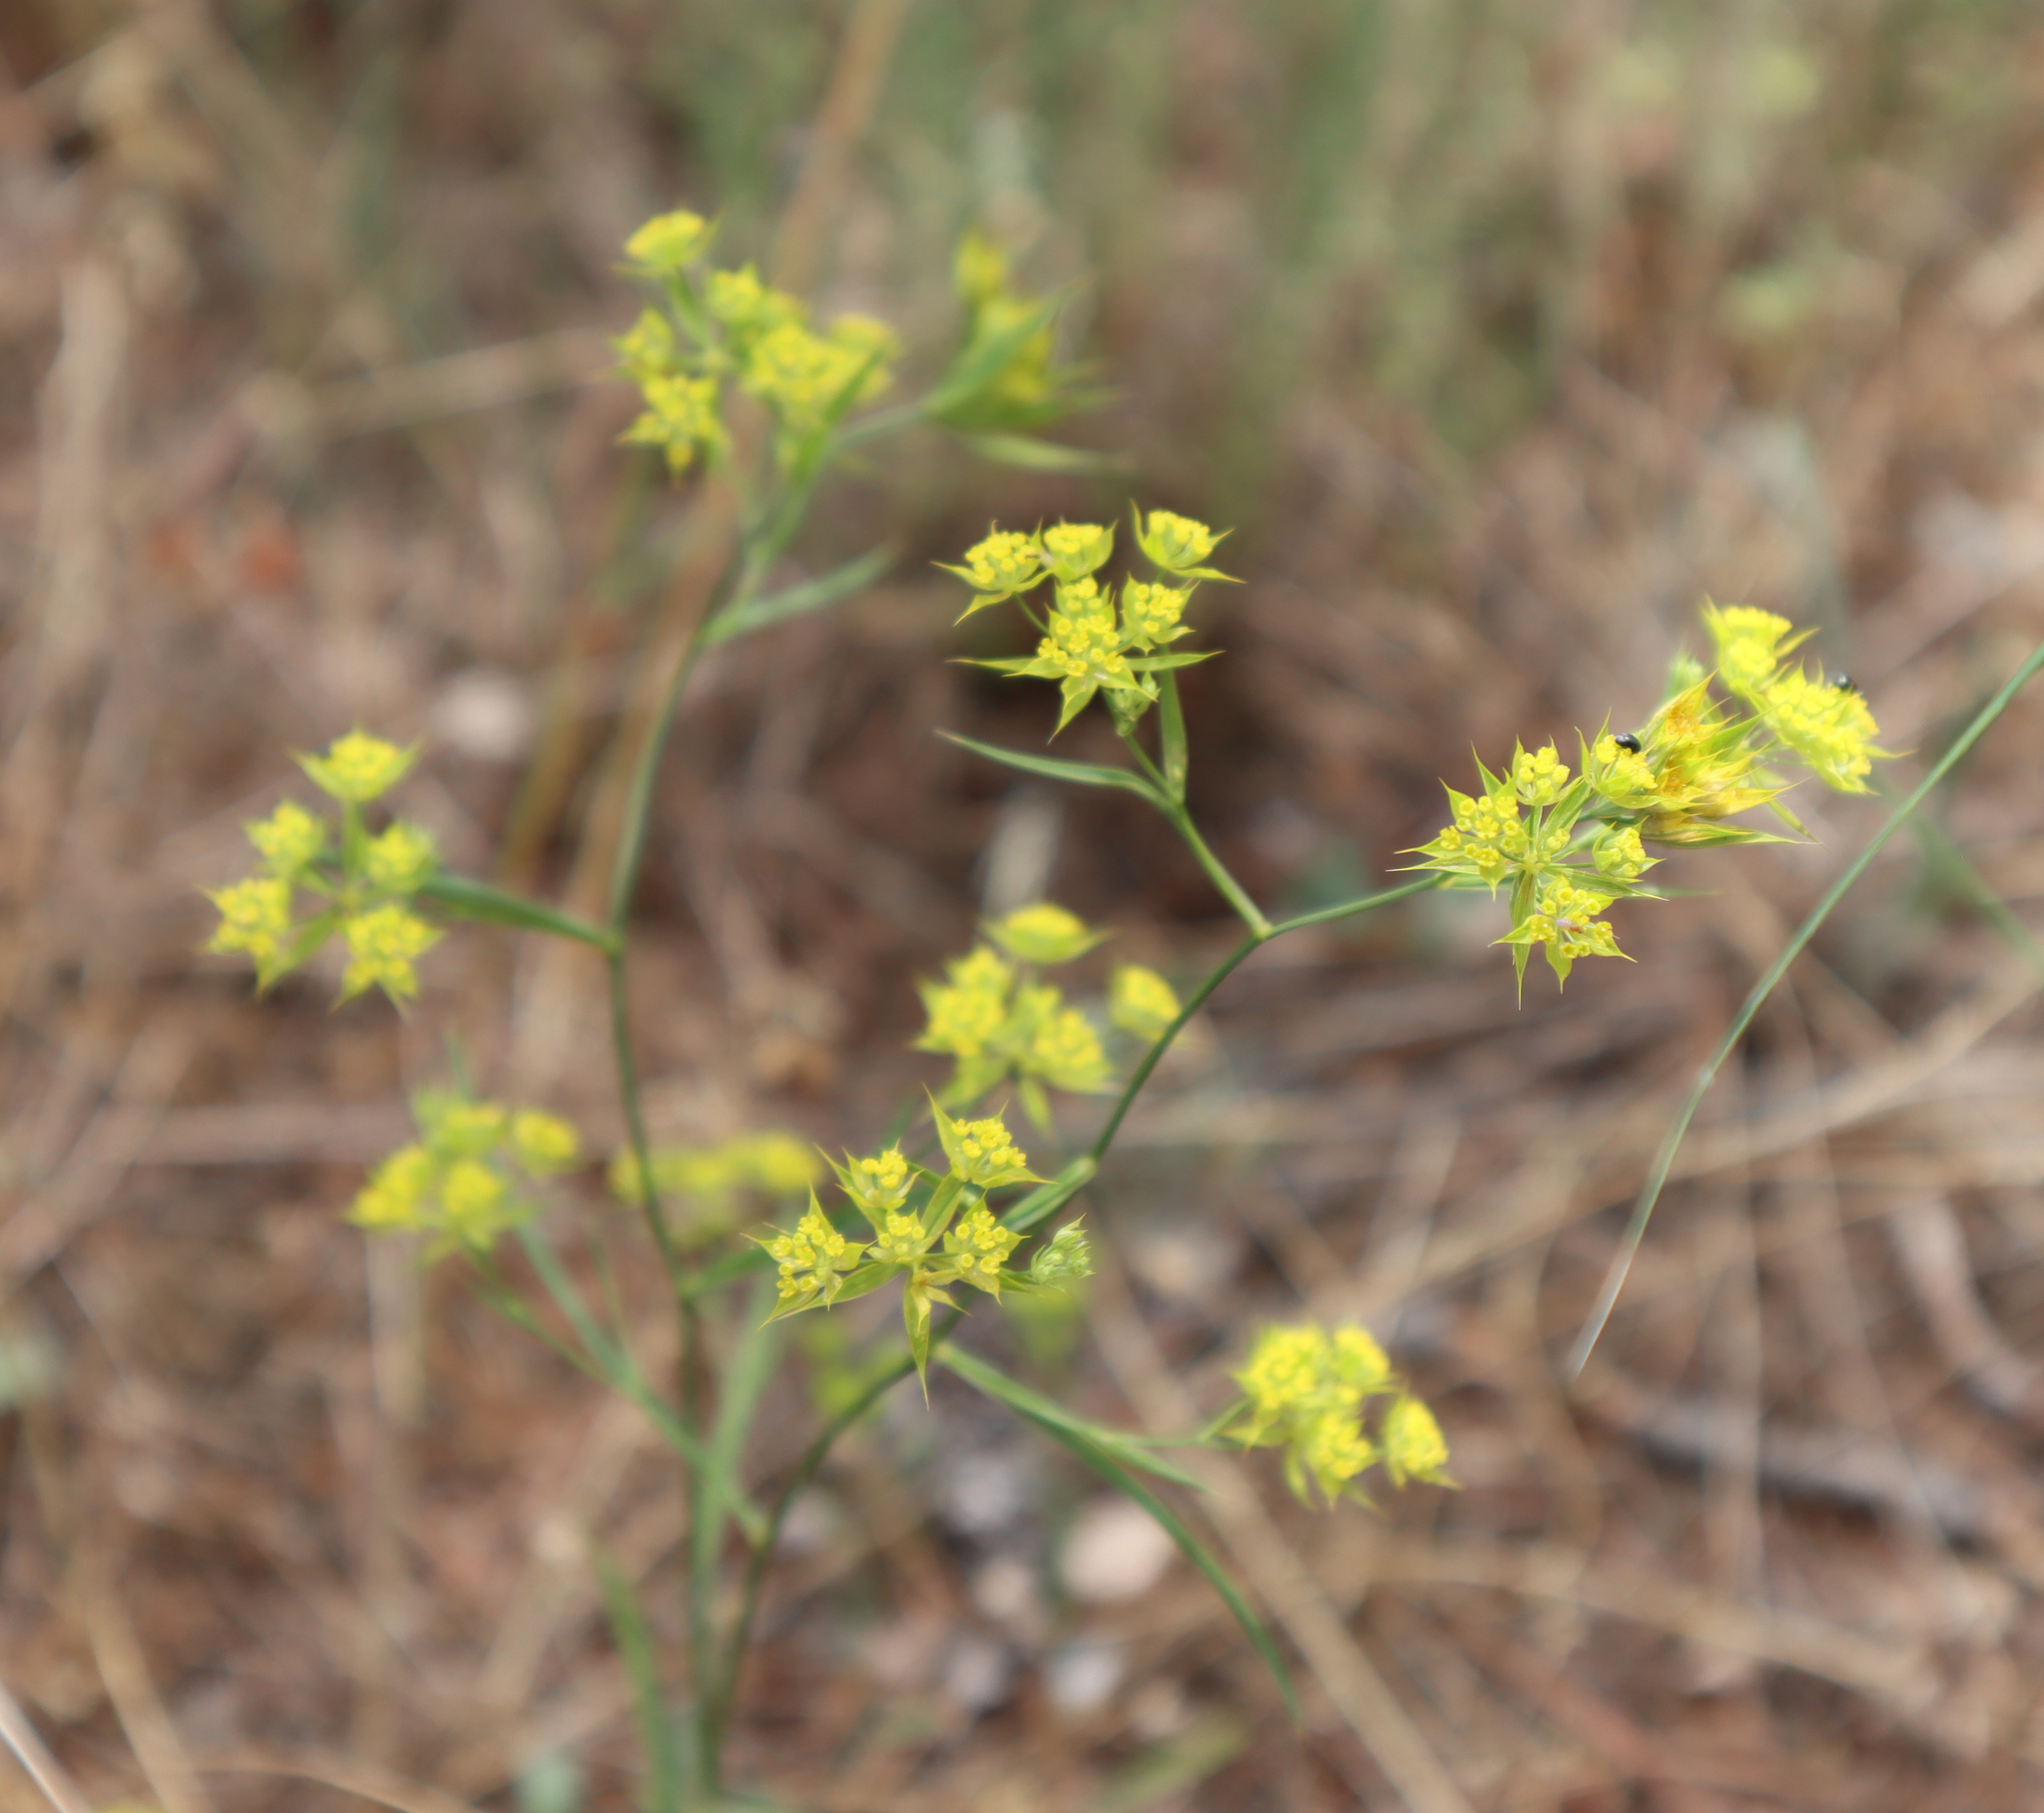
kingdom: Plantae
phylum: Tracheophyta
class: Magnoliopsida
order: Apiales
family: Apiaceae
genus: Bupleurum
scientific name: Bupleurum veronense
